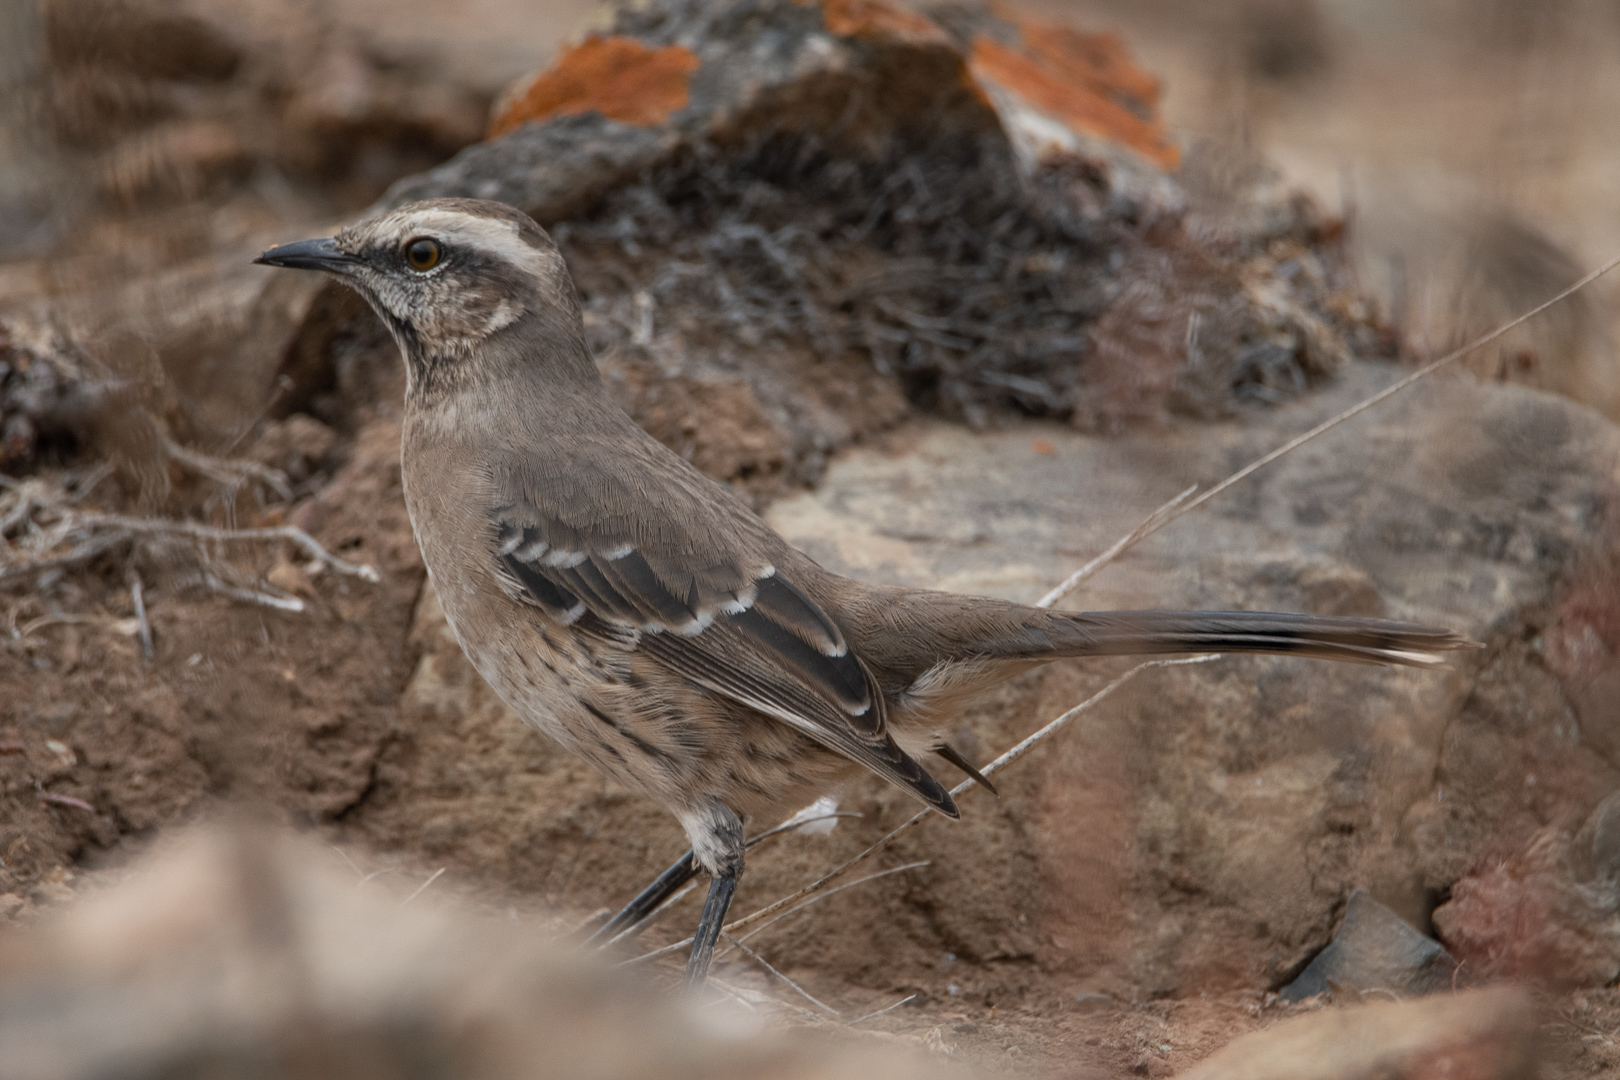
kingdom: Animalia
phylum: Chordata
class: Aves
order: Passeriformes
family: Mimidae
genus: Mimus
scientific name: Mimus thenca
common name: Chilean mockingbird
